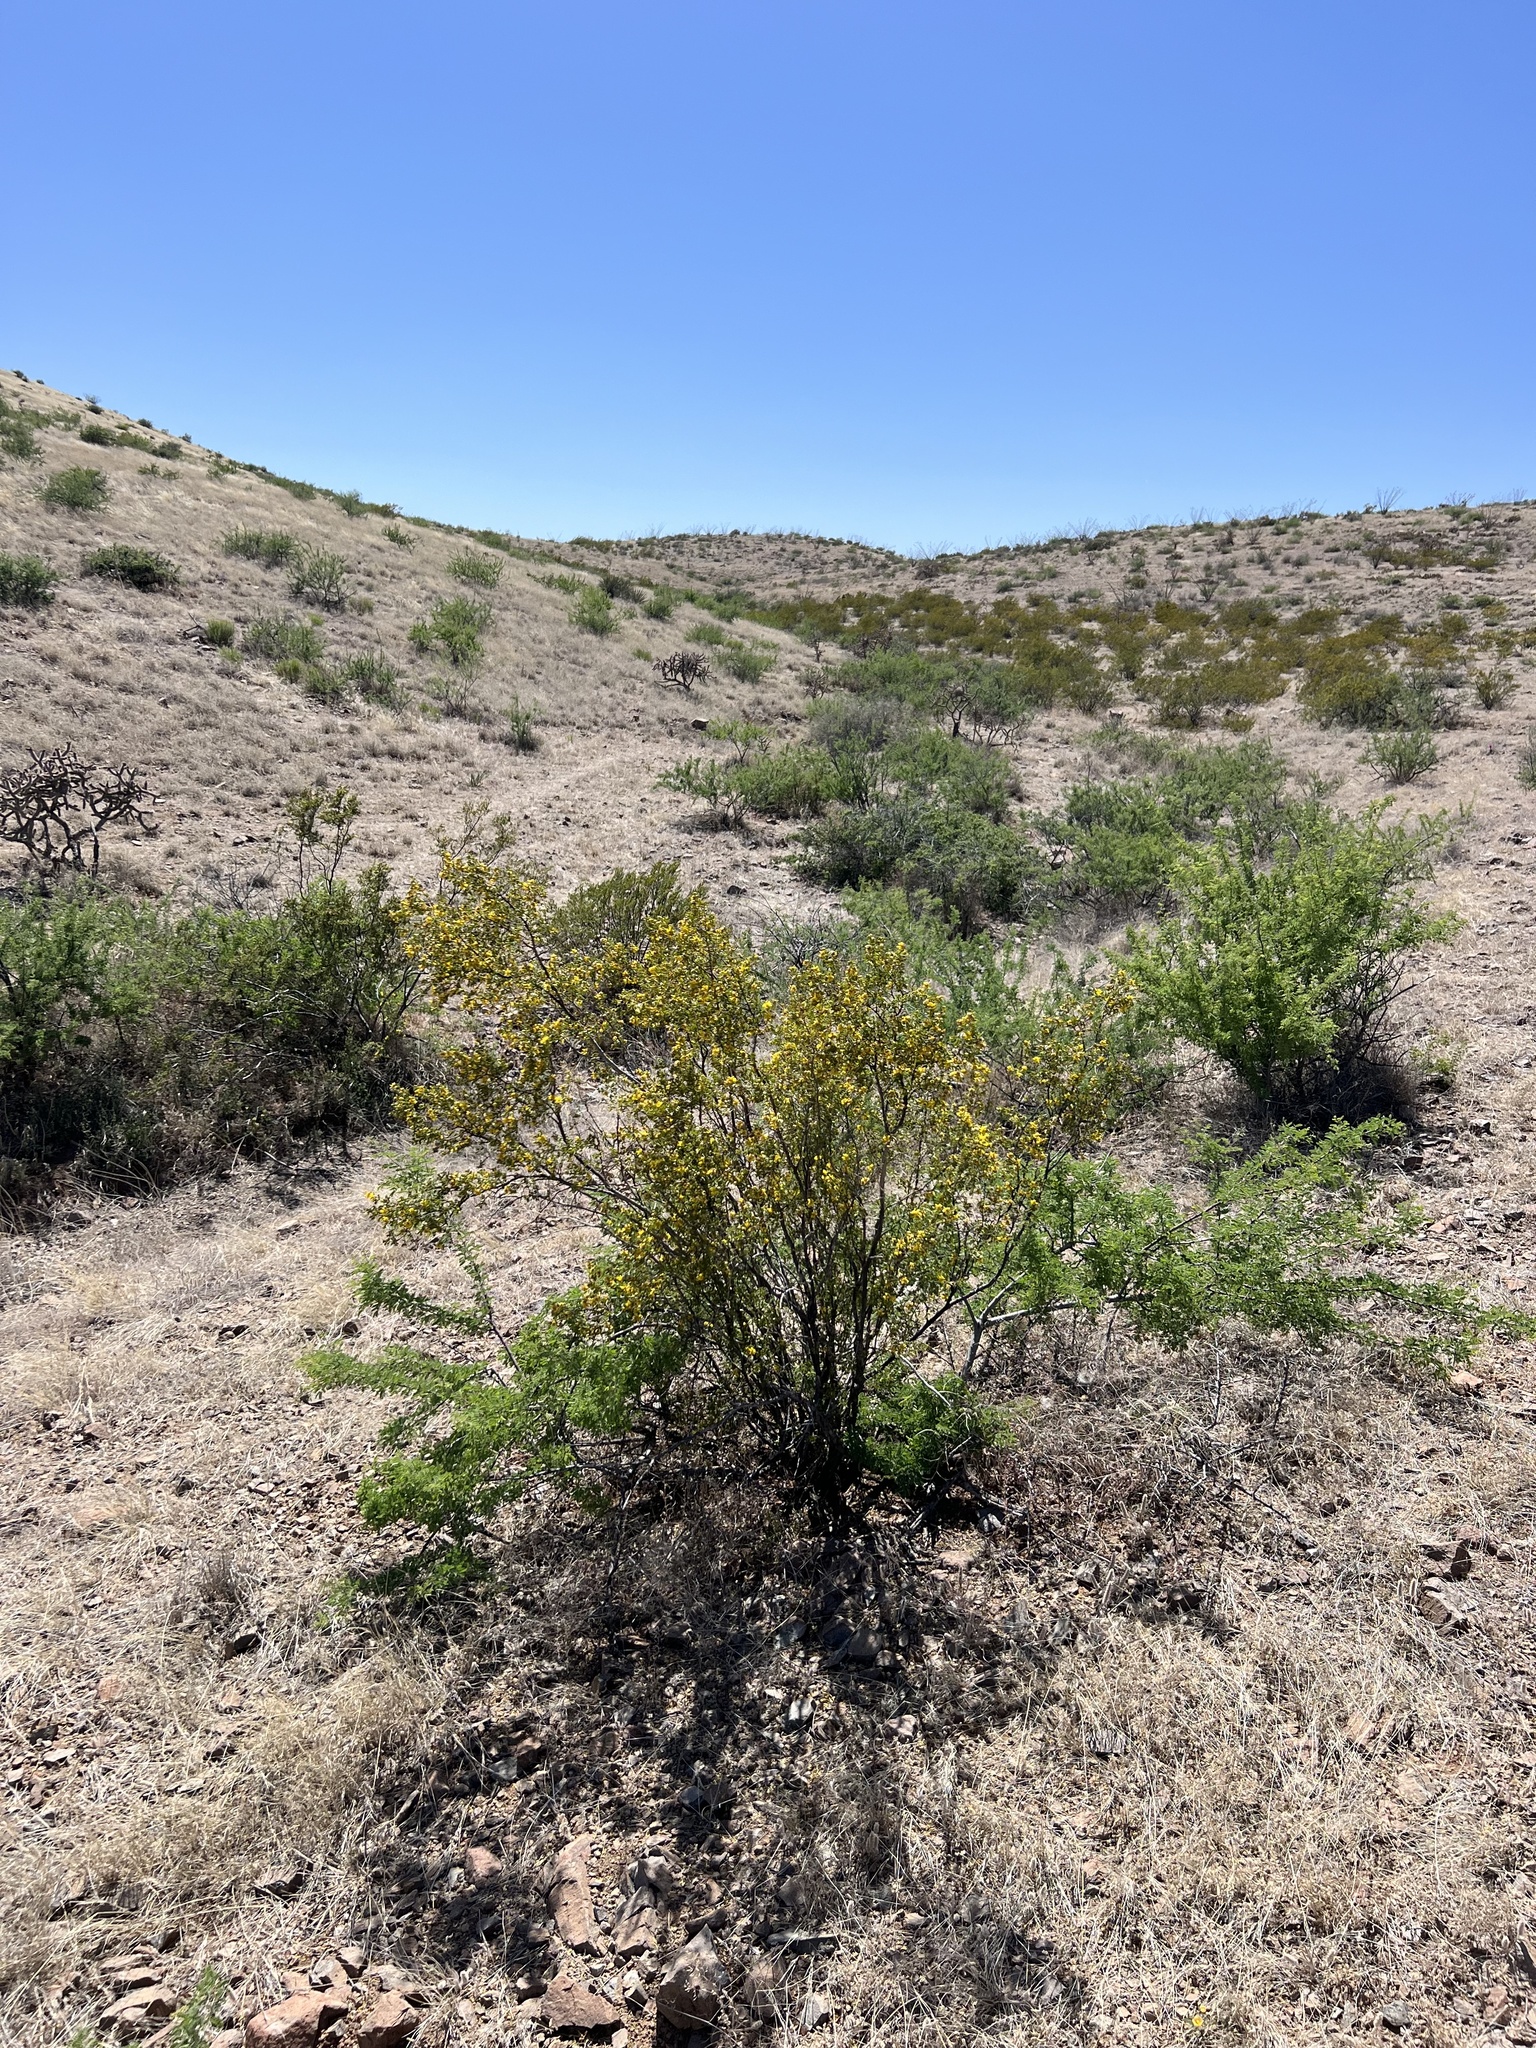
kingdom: Plantae
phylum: Tracheophyta
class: Magnoliopsida
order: Zygophyllales
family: Zygophyllaceae
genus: Larrea
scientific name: Larrea tridentata
